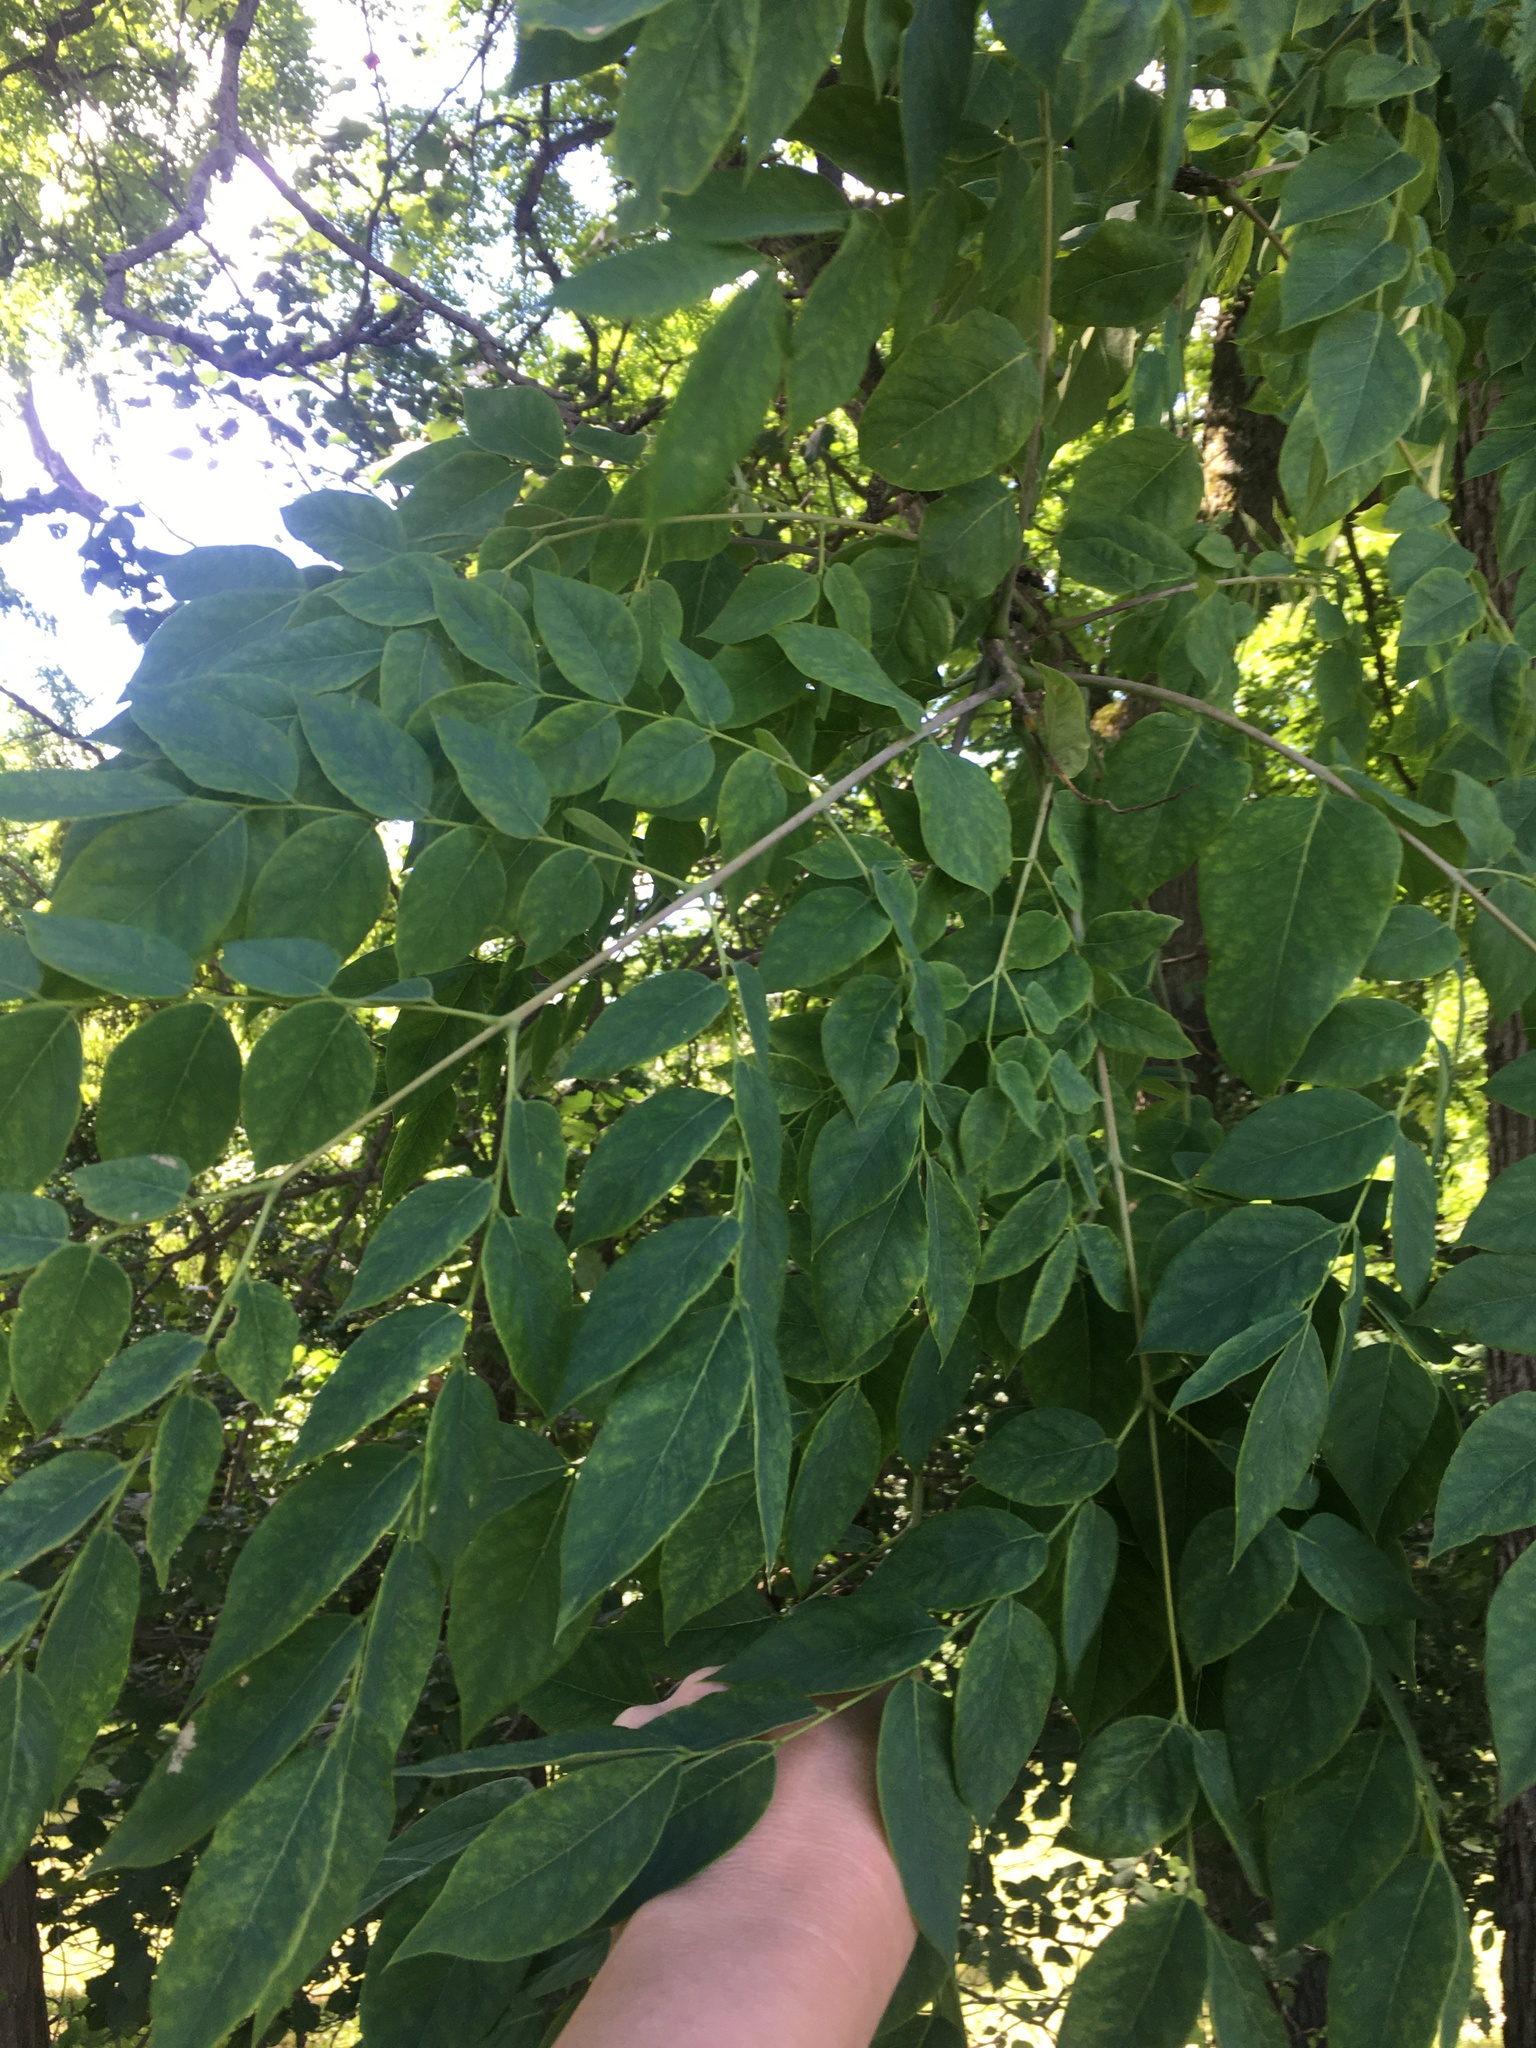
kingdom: Plantae
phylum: Tracheophyta
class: Magnoliopsida
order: Fabales
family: Fabaceae
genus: Gymnocladus
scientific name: Gymnocladus dioicus
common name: Kentucky coffee-tree
